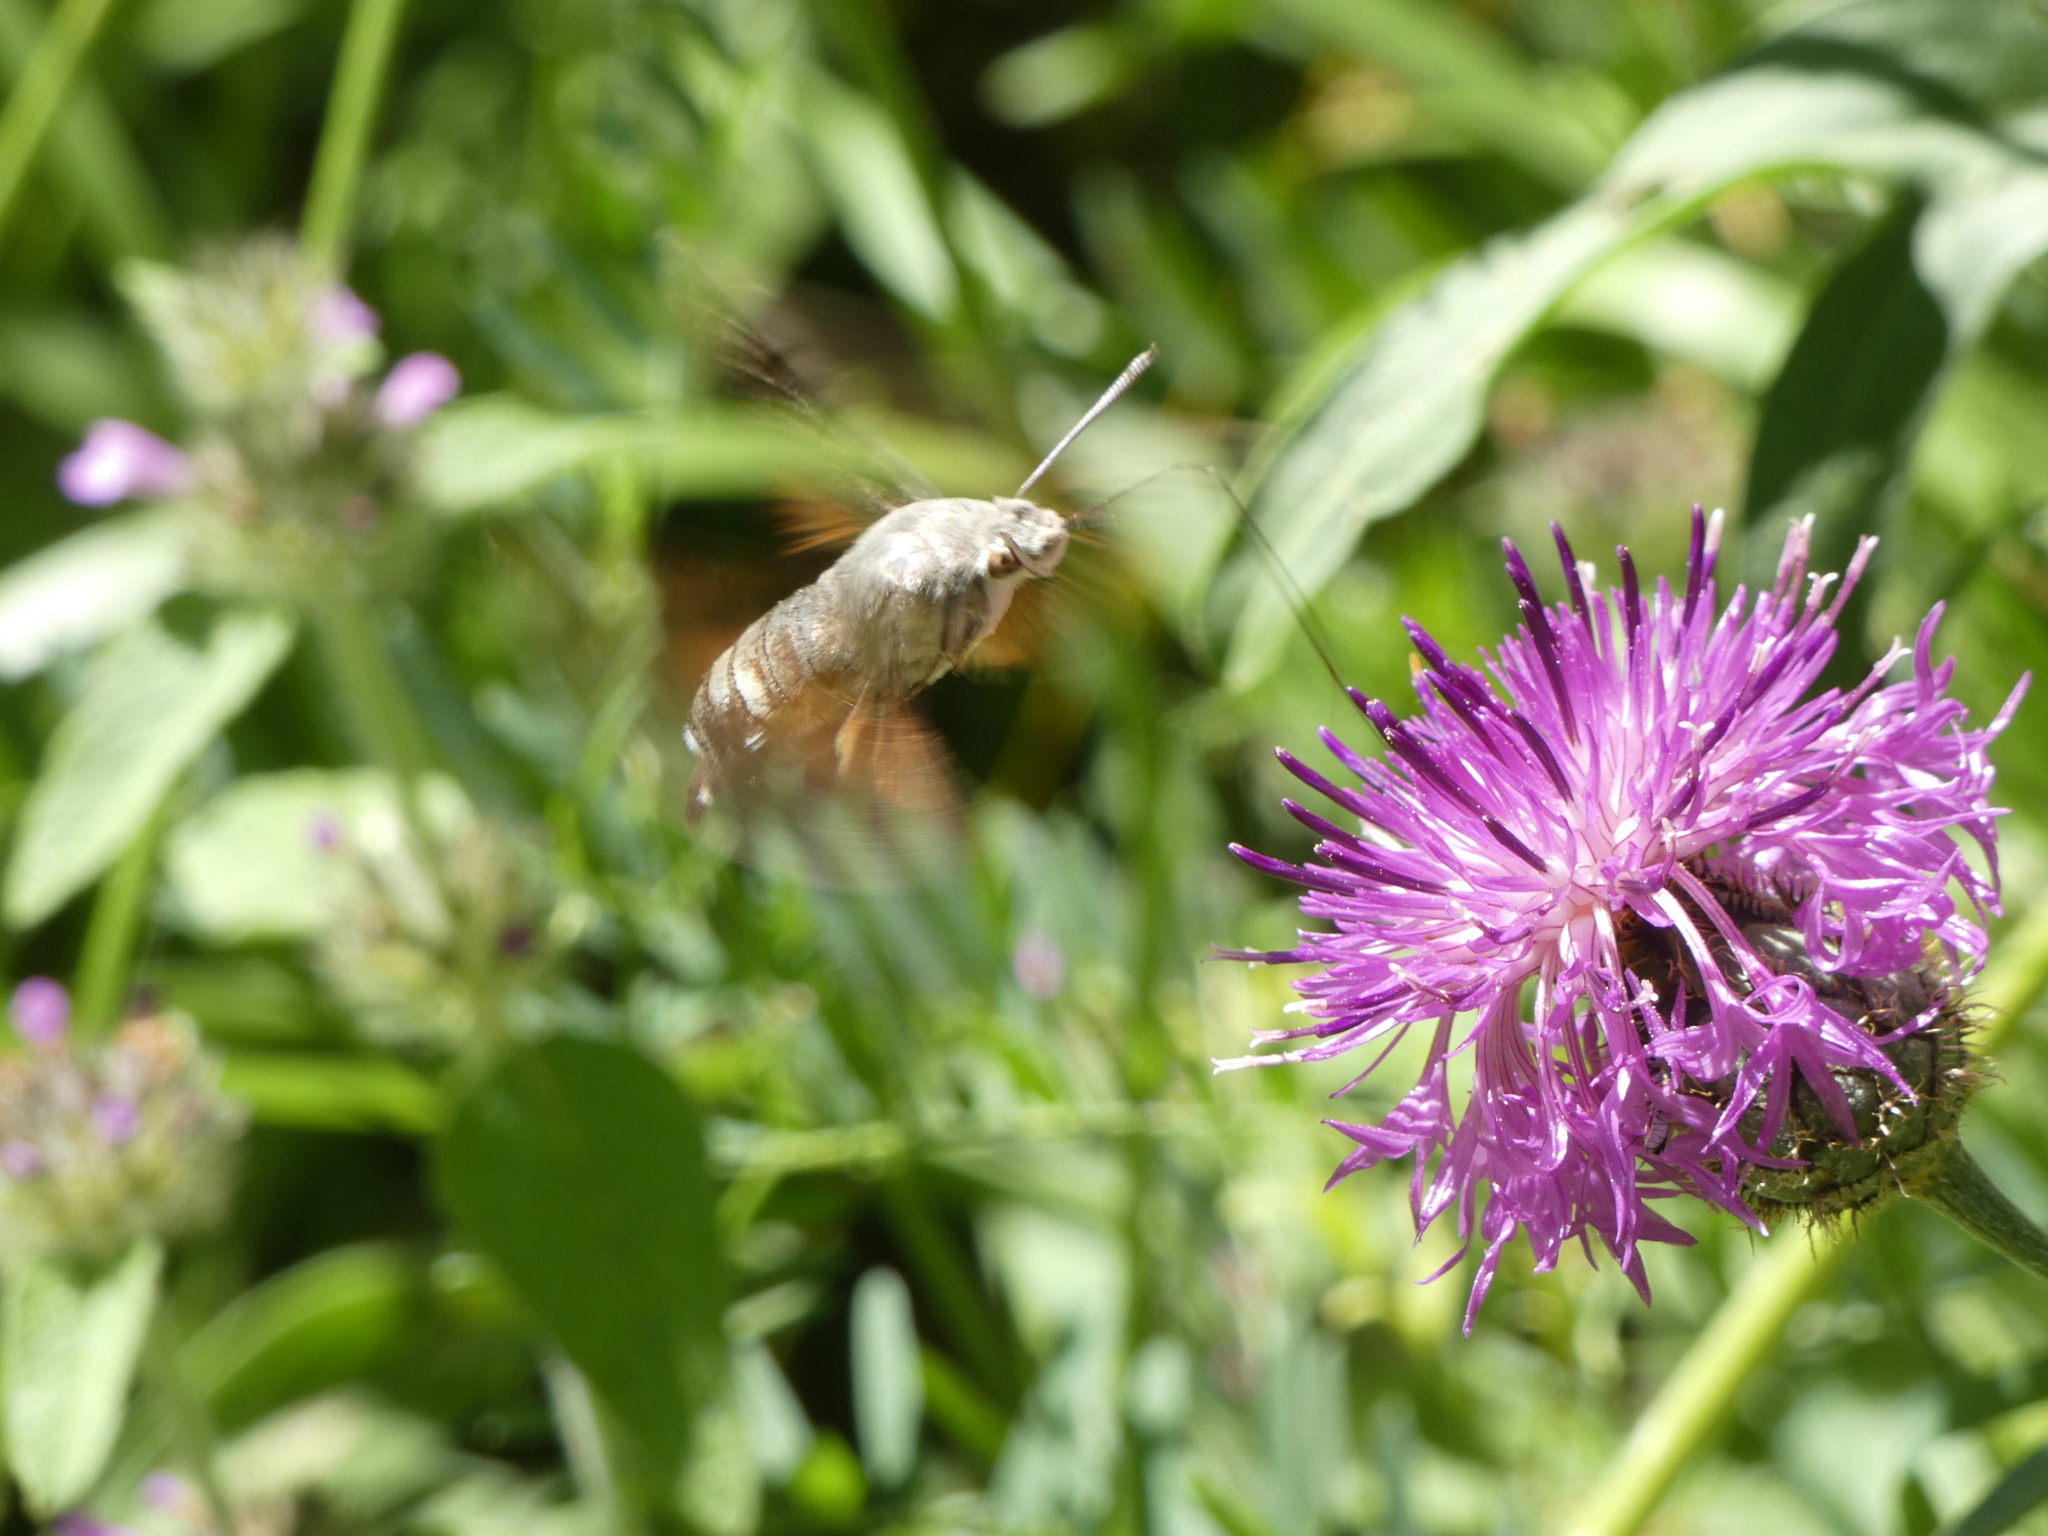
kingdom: Animalia
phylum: Arthropoda
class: Insecta
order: Lepidoptera
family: Sphingidae
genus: Macroglossum
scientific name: Macroglossum stellatarum
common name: Humming-bird hawk-moth
